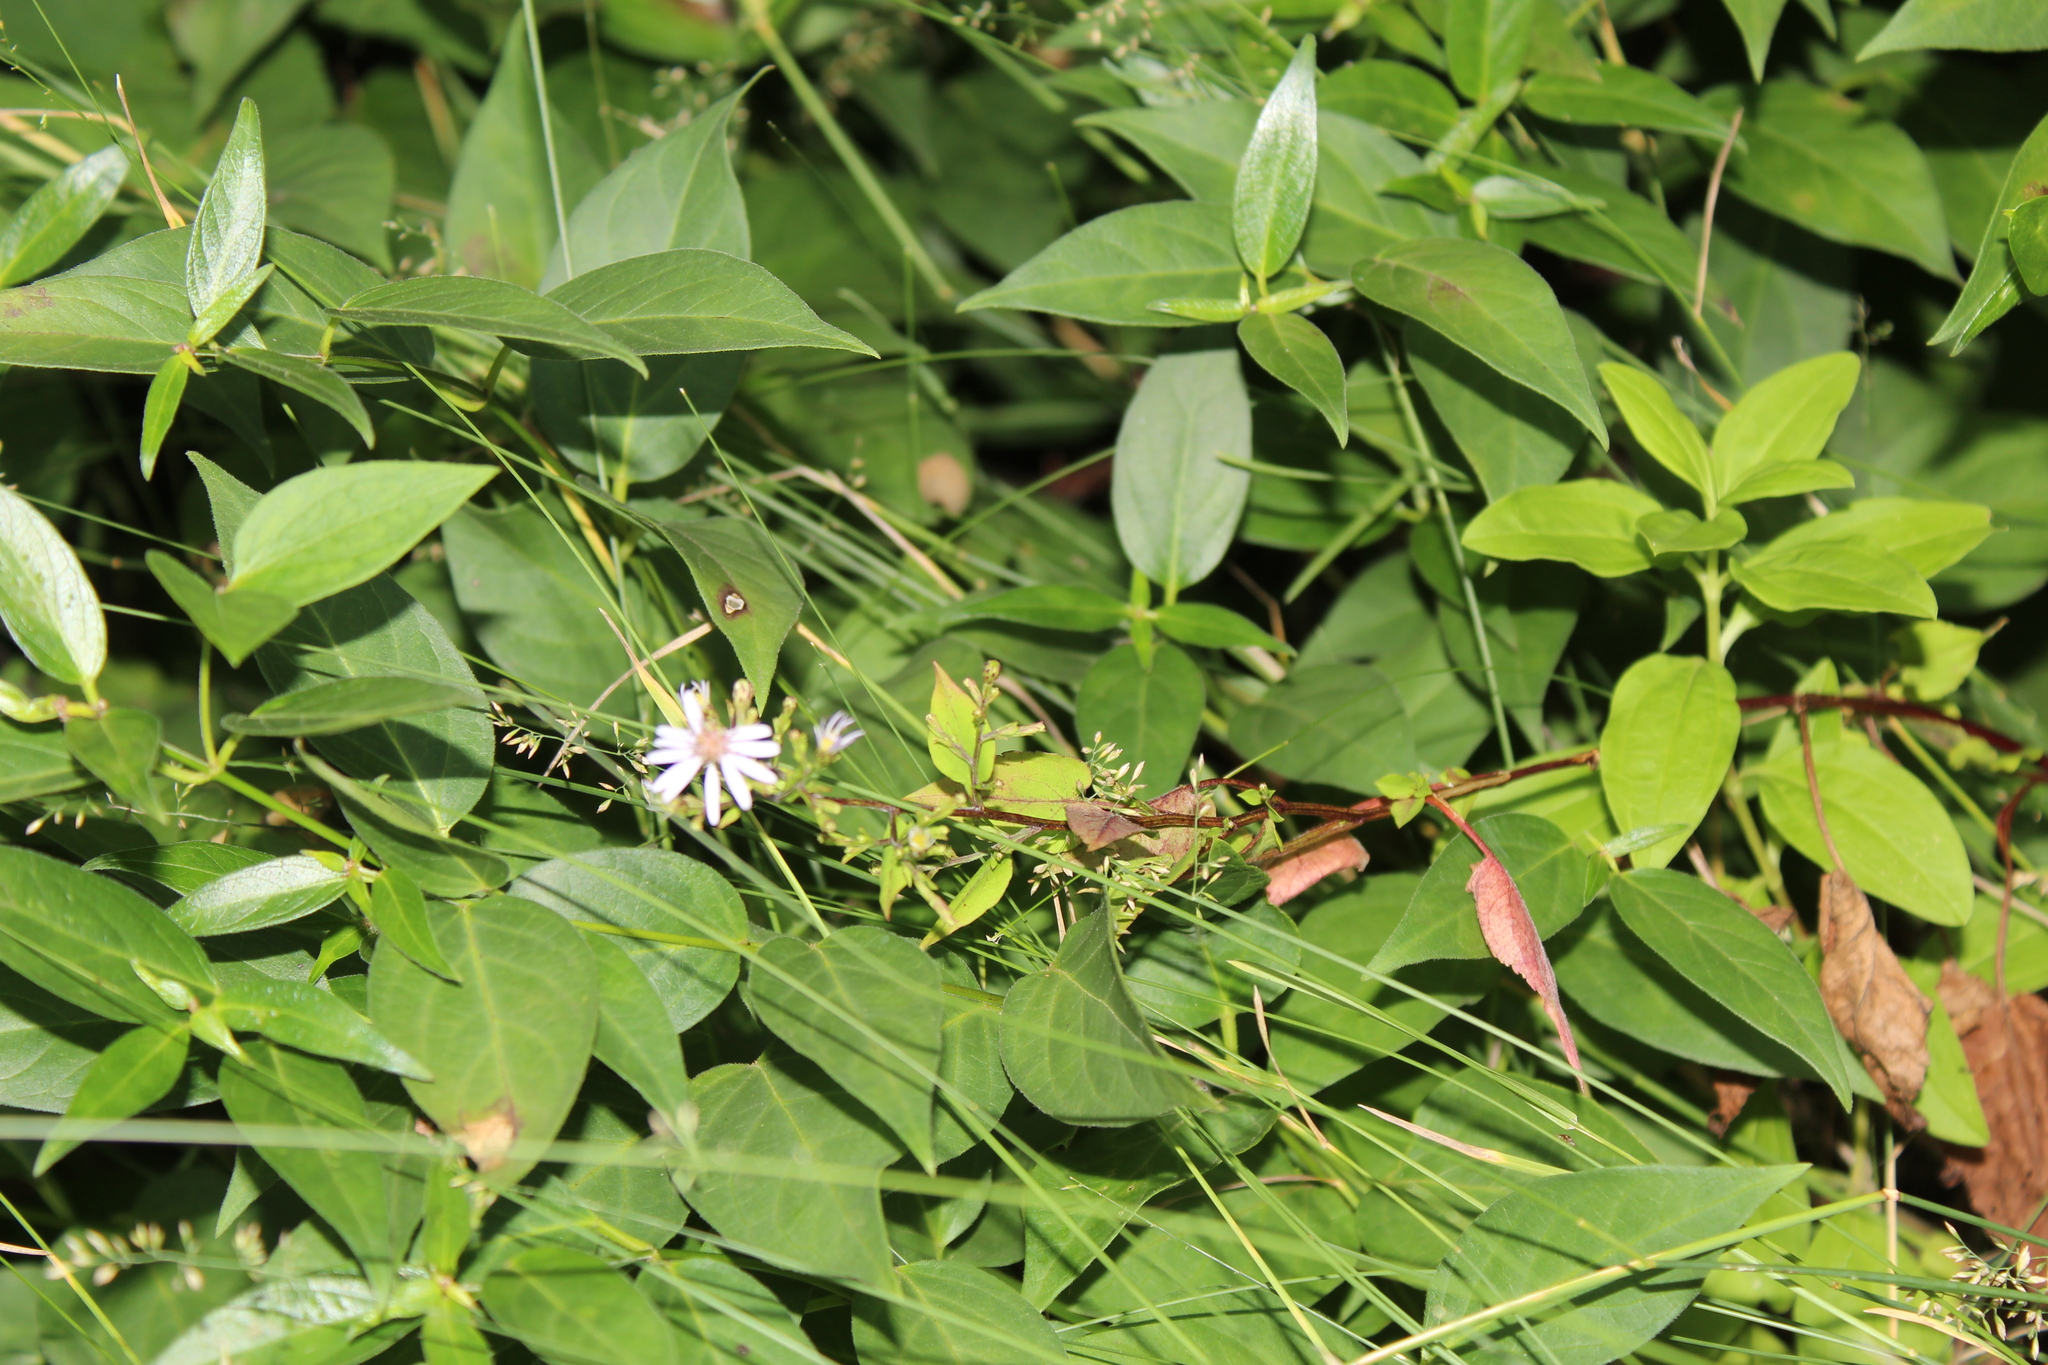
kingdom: Plantae
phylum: Tracheophyta
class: Magnoliopsida
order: Gentianales
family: Apocynaceae
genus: Vincetoxicum
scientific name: Vincetoxicum nigrum
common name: Black swallow-wort
